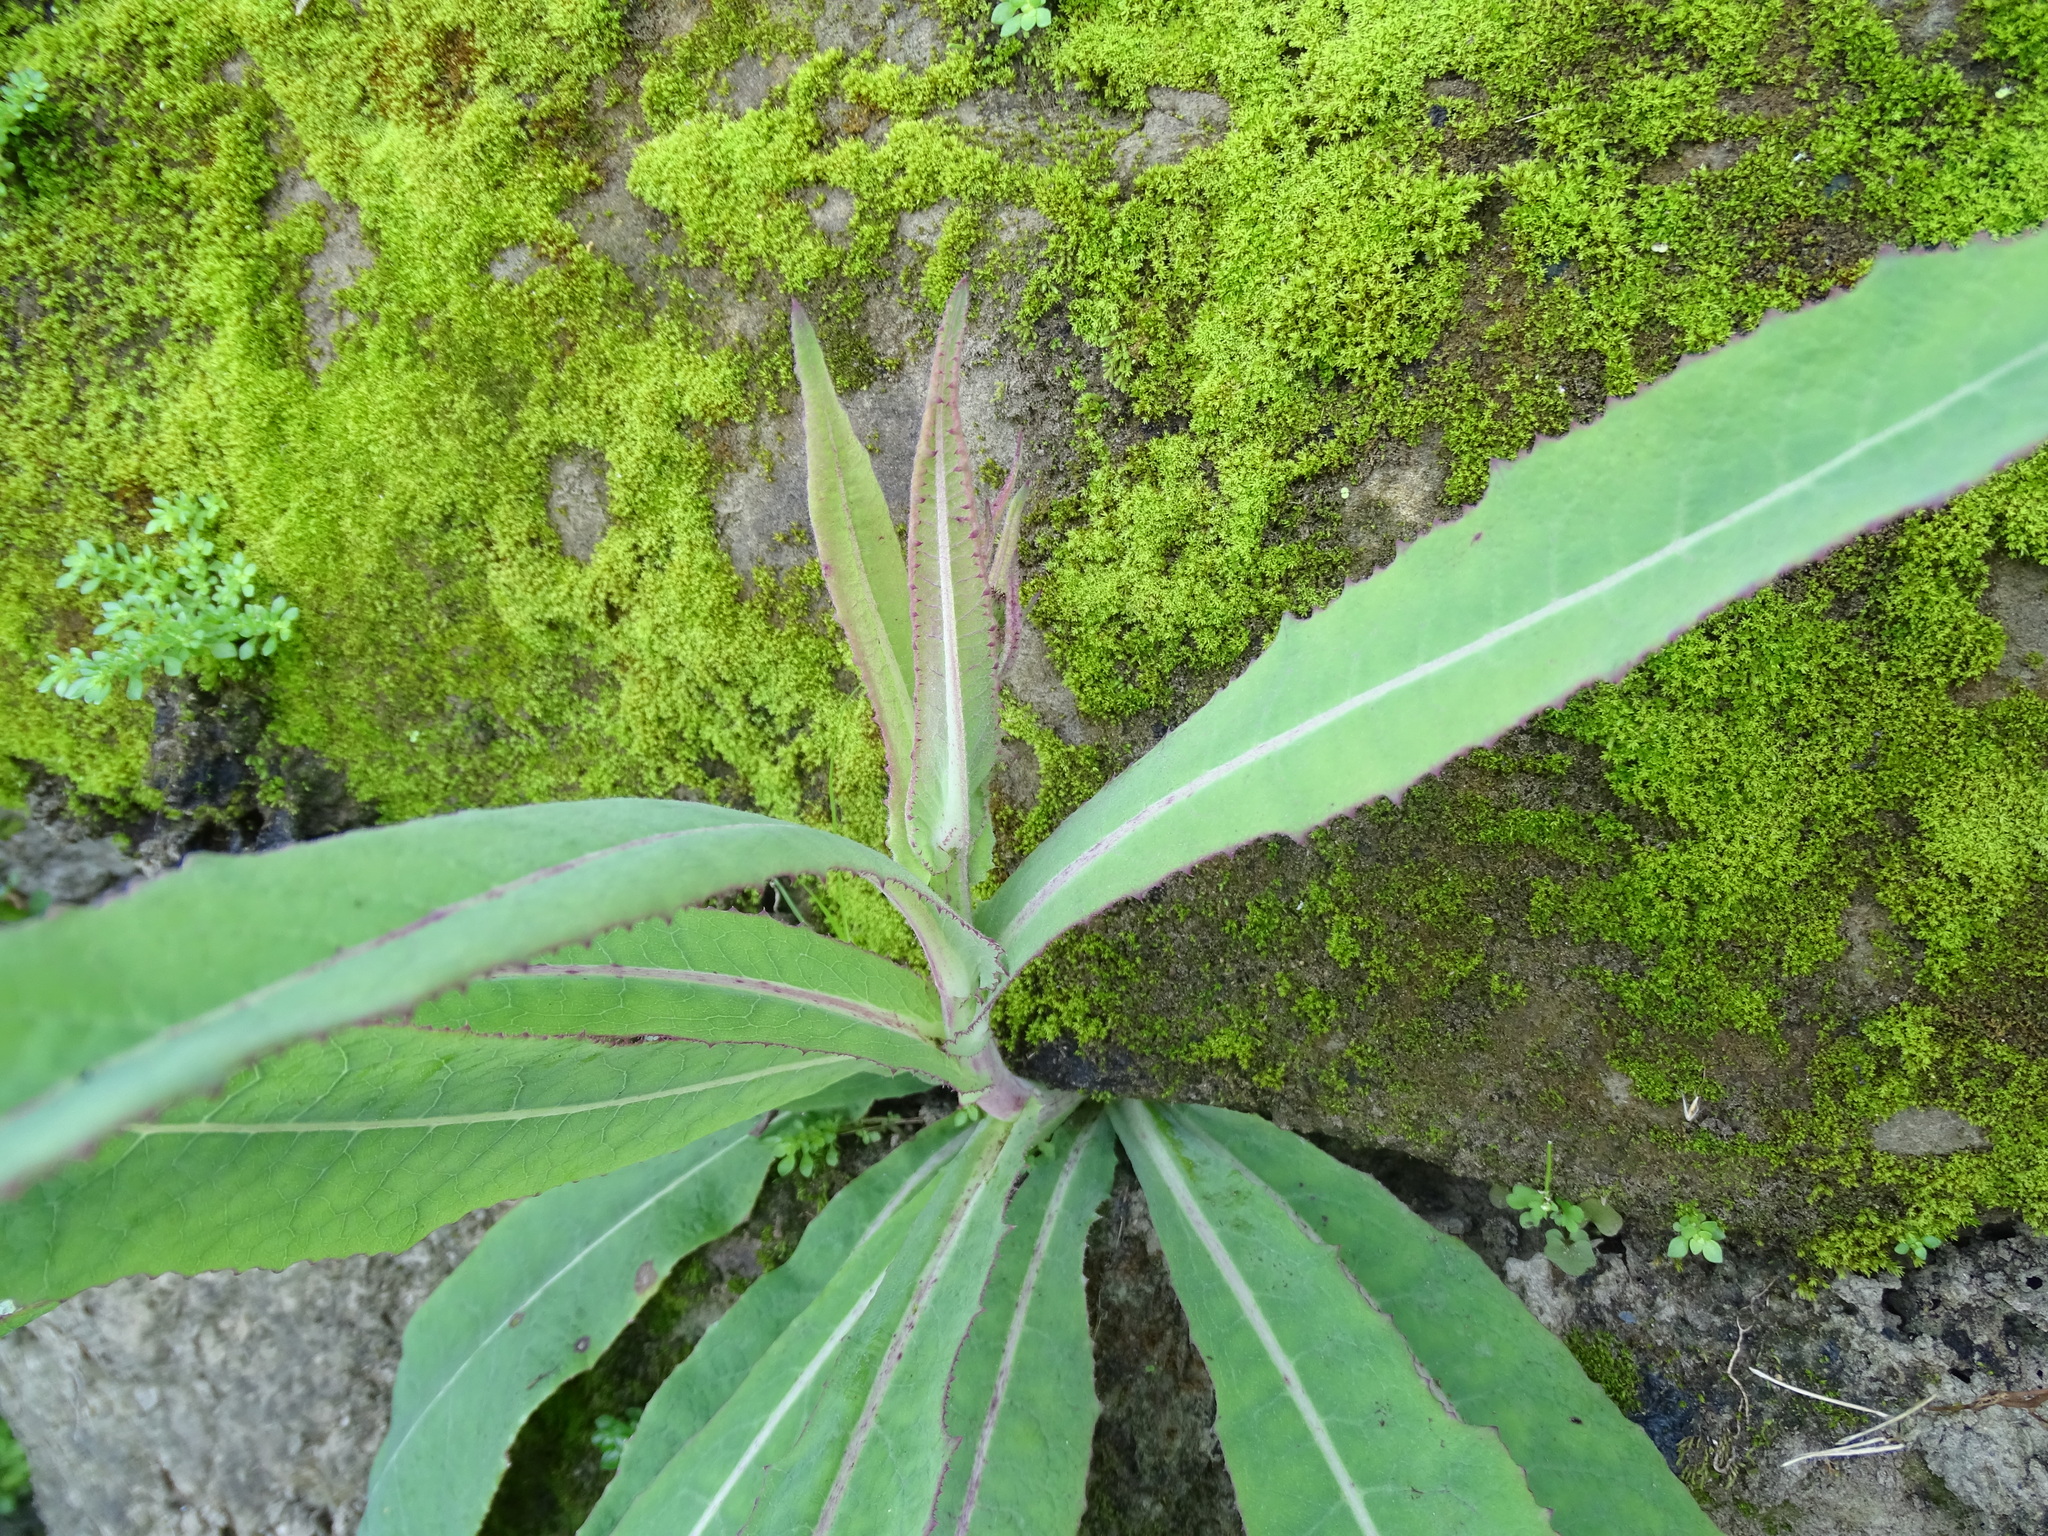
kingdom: Plantae
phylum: Tracheophyta
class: Magnoliopsida
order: Asterales
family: Asteraceae
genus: Sonchus
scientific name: Sonchus arvensis
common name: Perennial sow-thistle
